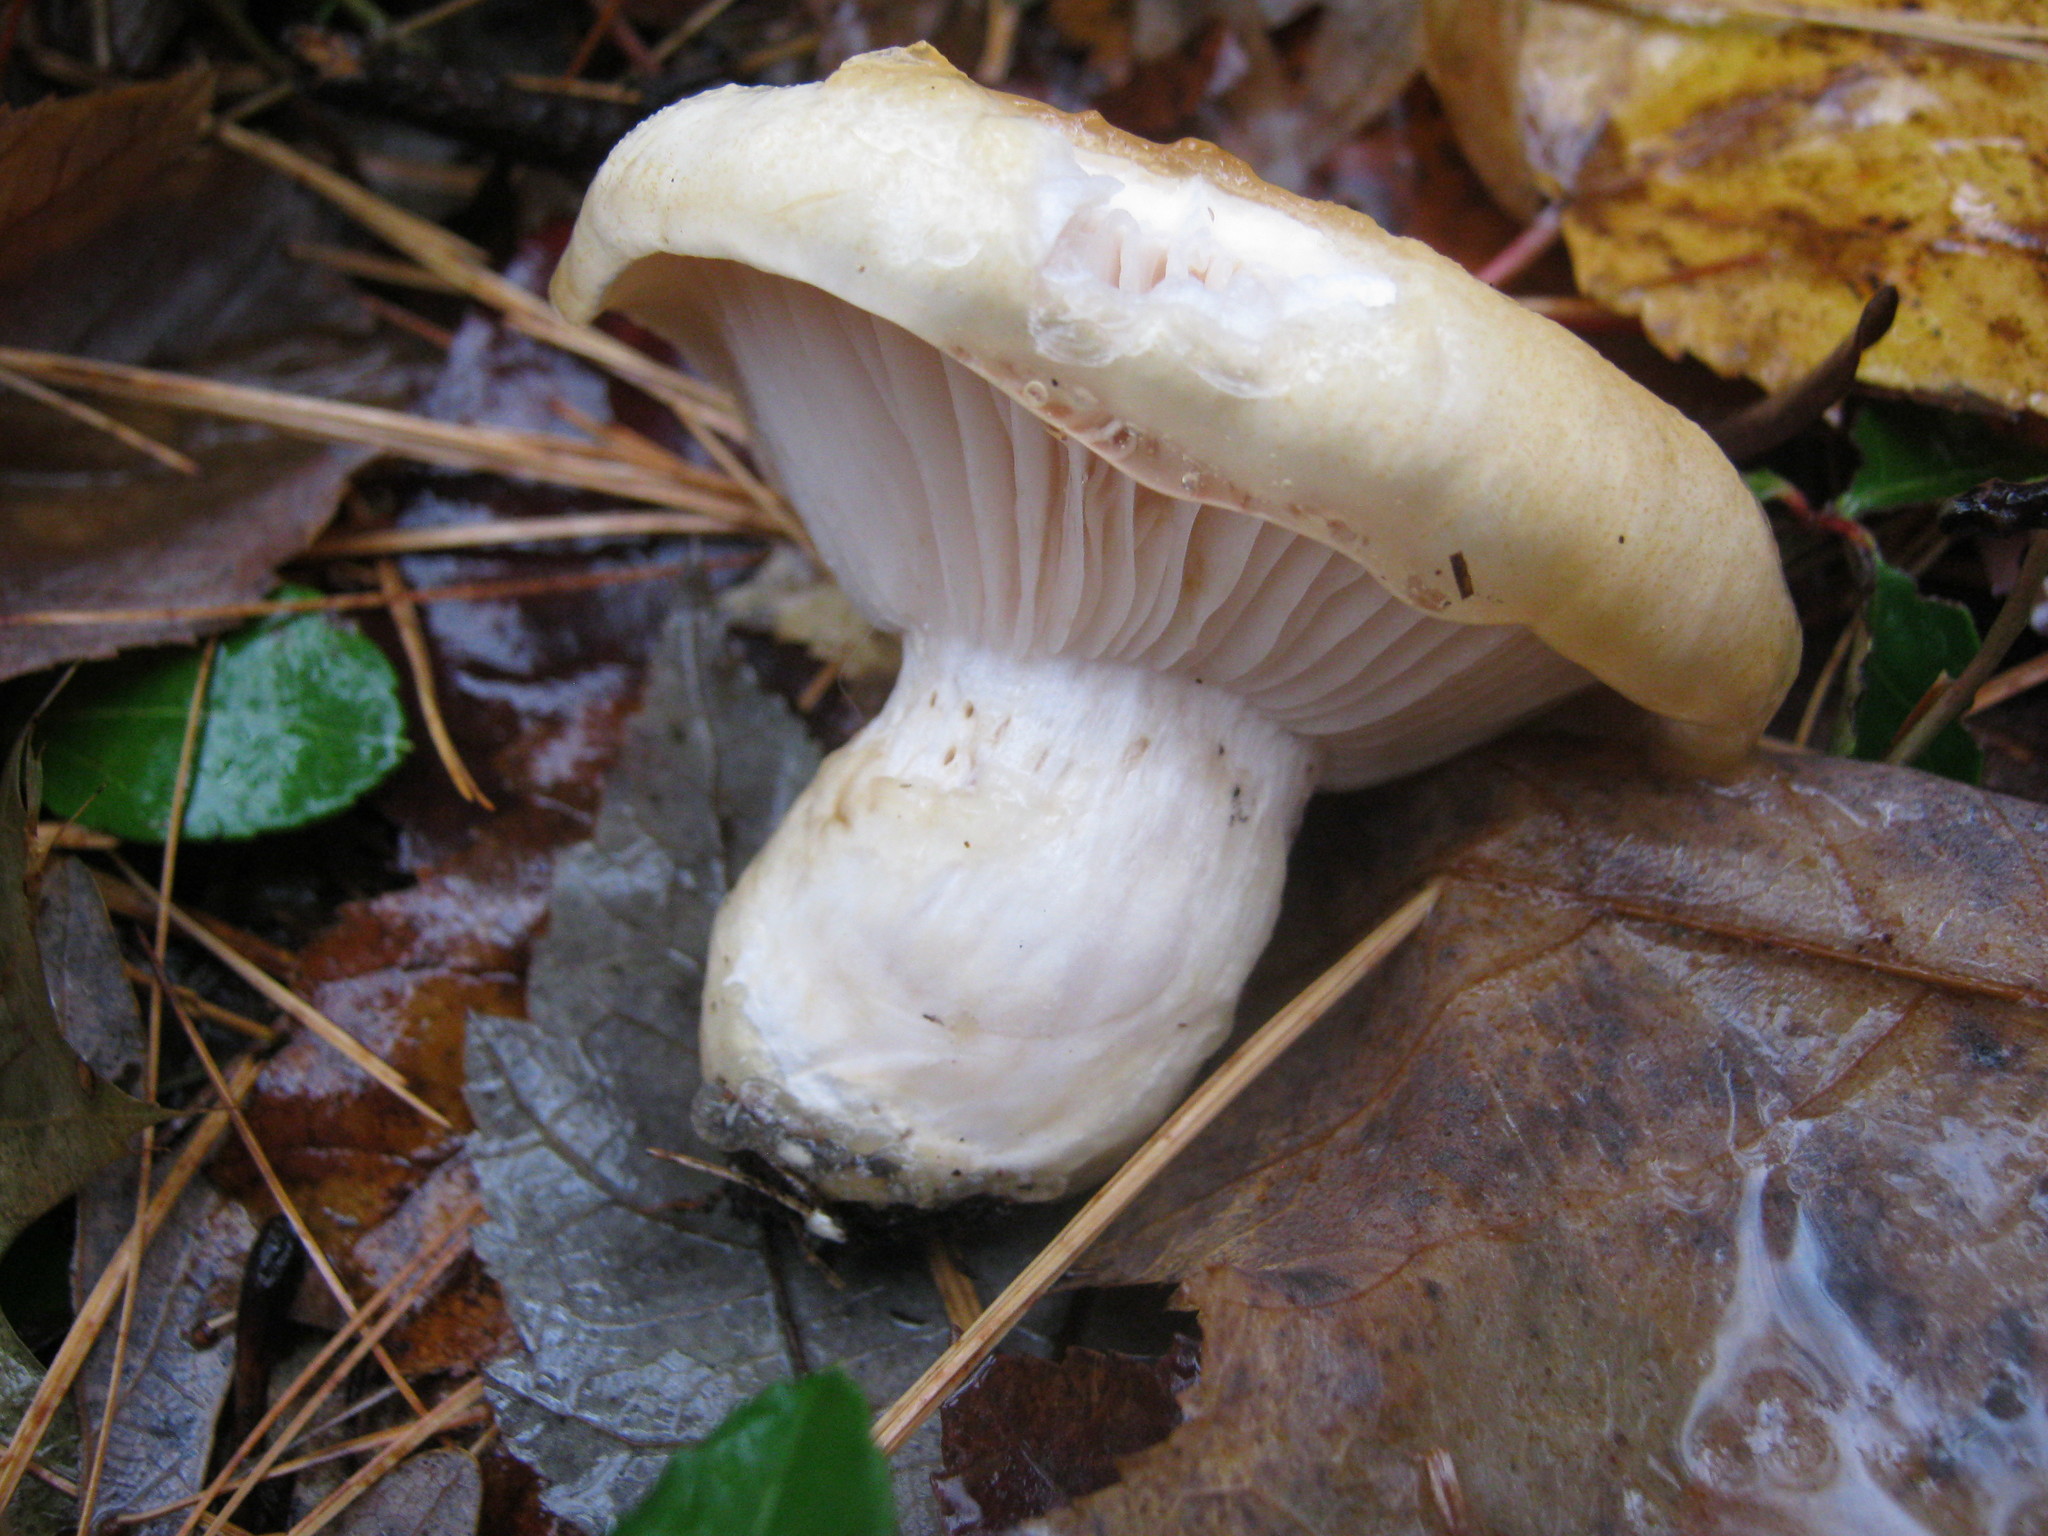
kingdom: Fungi
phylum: Basidiomycota
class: Agaricomycetes
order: Agaricales
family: Hygrophoraceae
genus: Hygrophorus
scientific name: Hygrophorus ligatus
